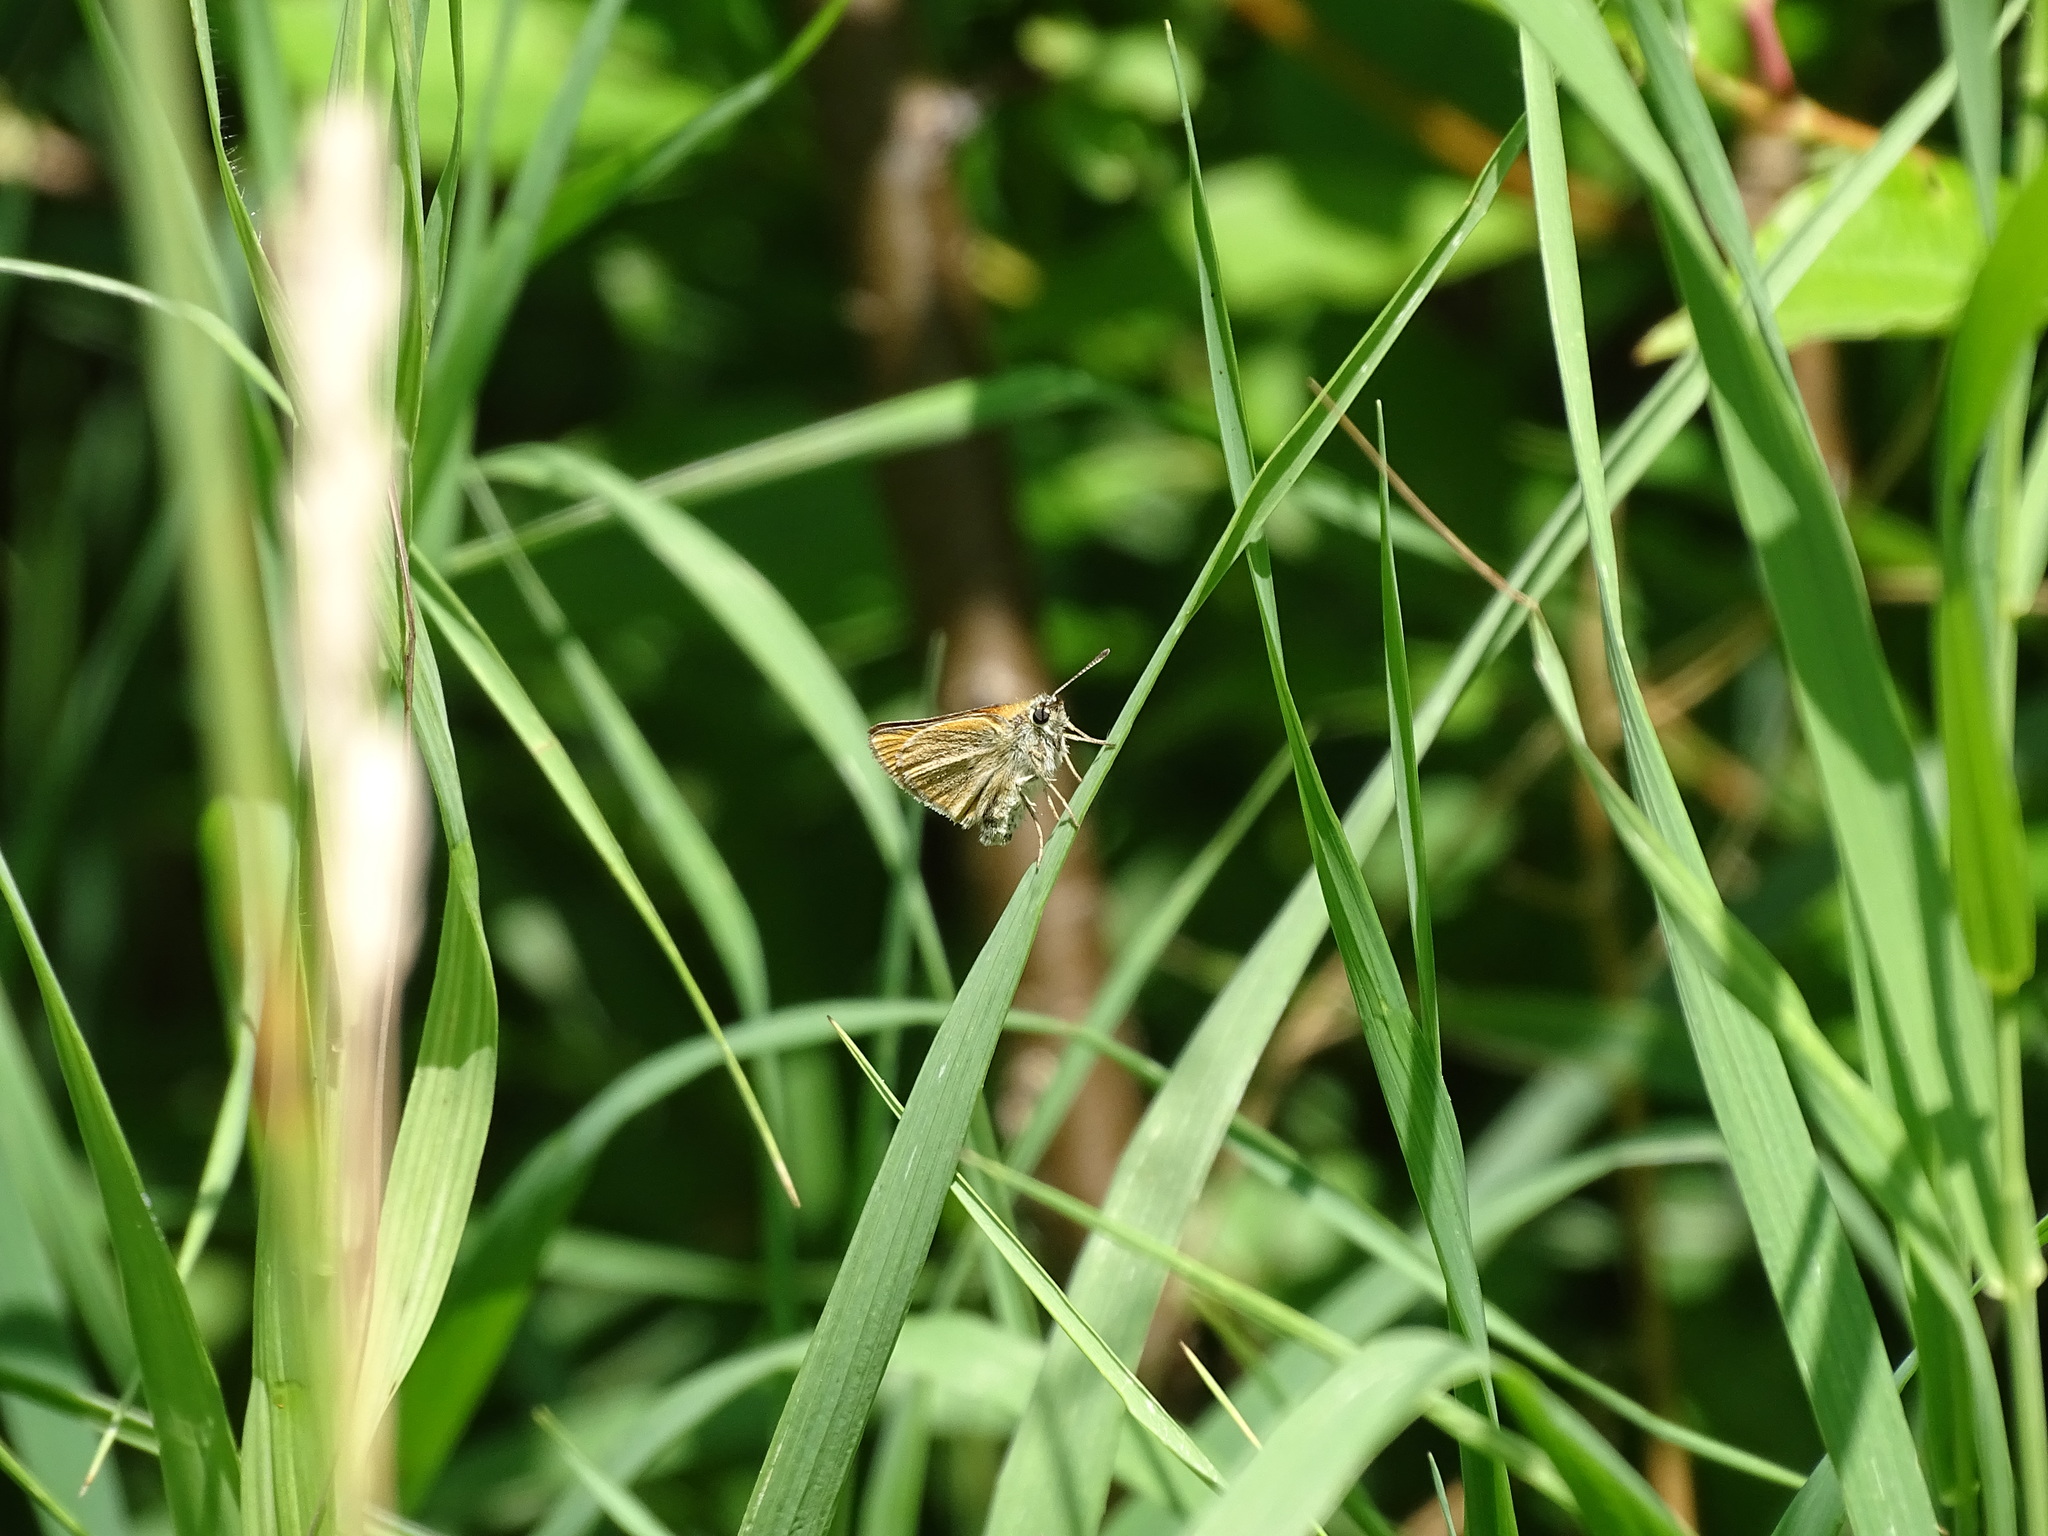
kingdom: Animalia
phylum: Arthropoda
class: Insecta
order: Lepidoptera
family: Hesperiidae
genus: Thymelicus
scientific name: Thymelicus lineola
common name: Essex skipper
